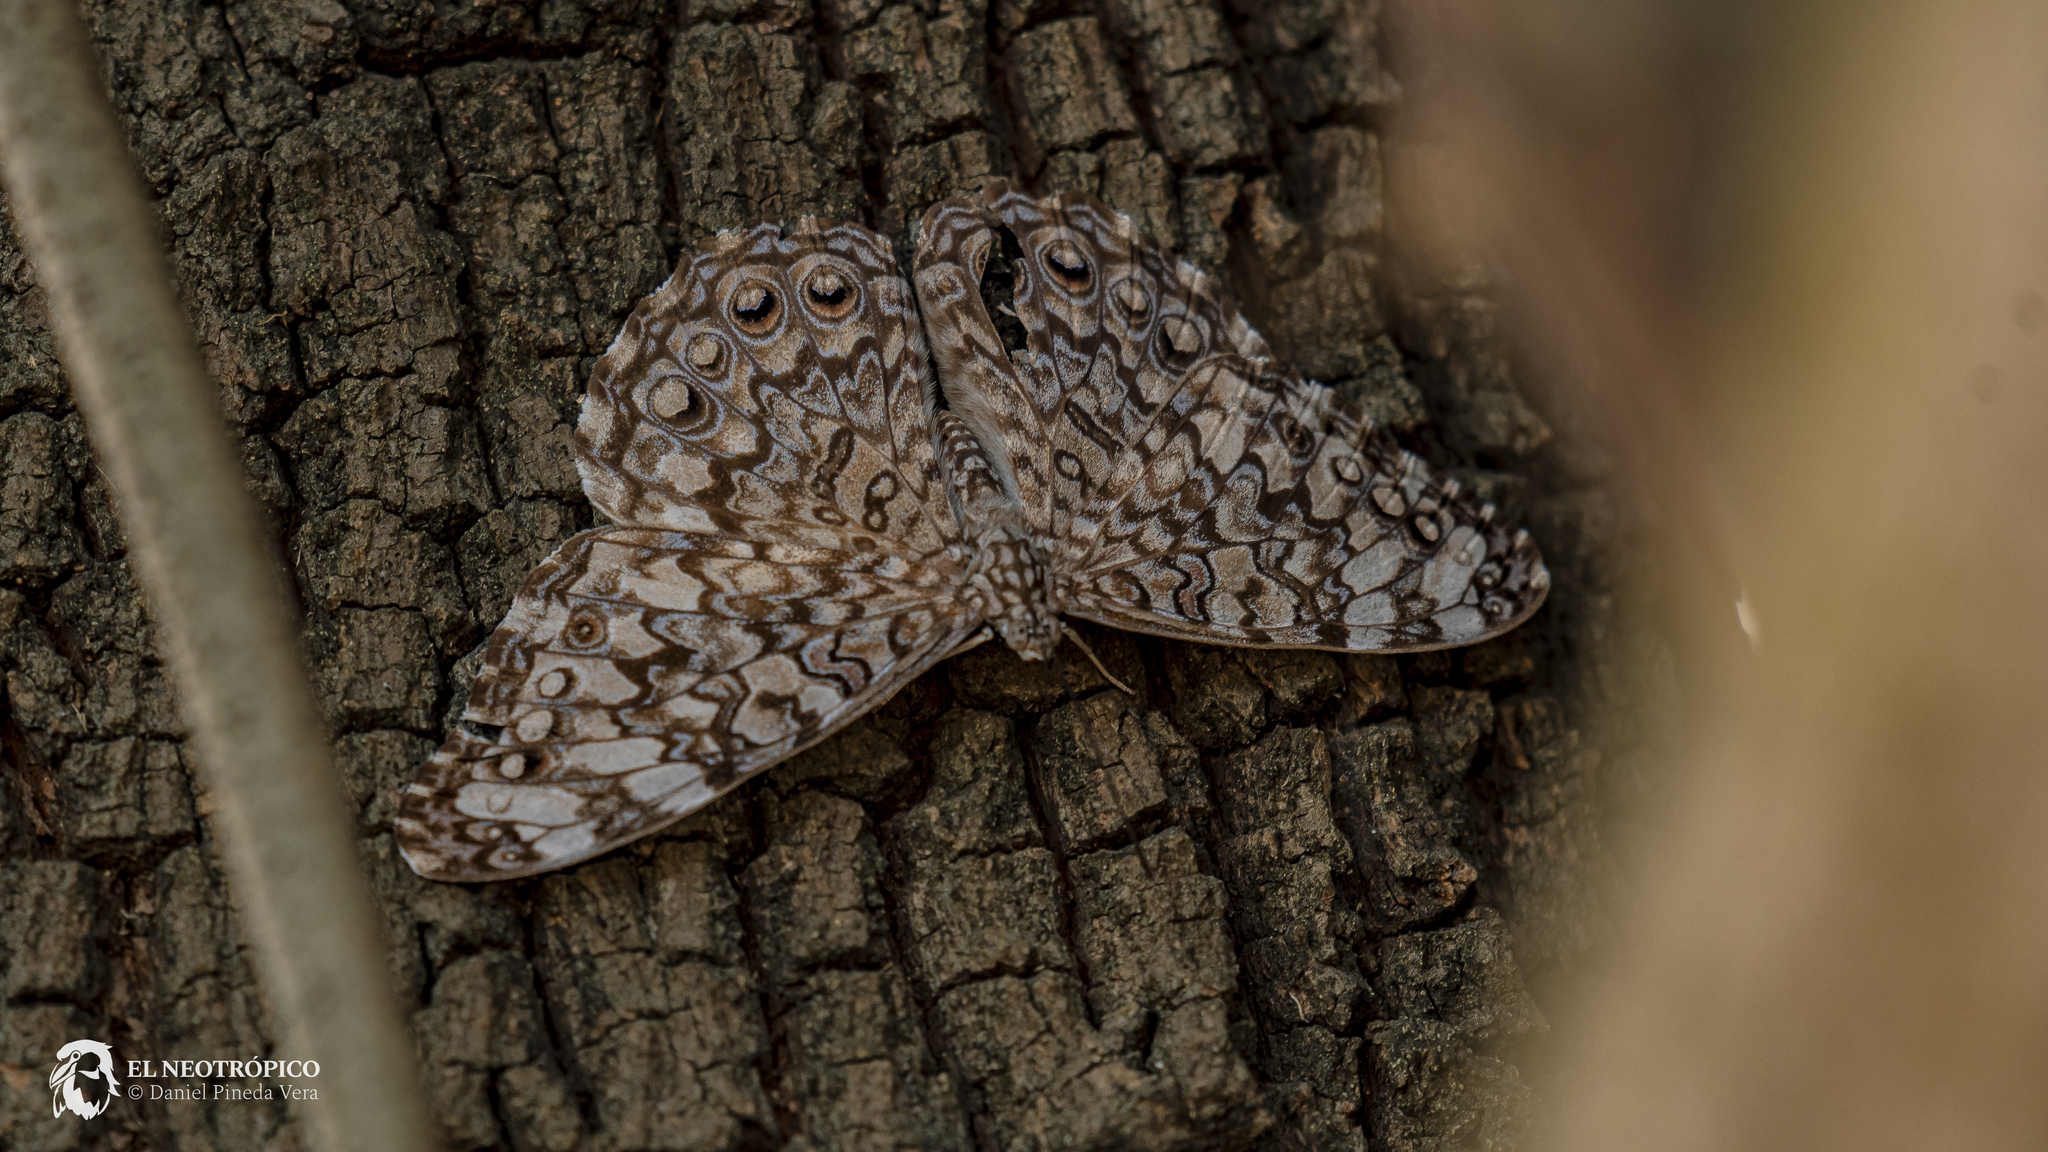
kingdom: Animalia
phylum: Arthropoda
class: Insecta
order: Lepidoptera
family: Nymphalidae
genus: Hamadryas
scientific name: Hamadryas februa
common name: Gray cracker
